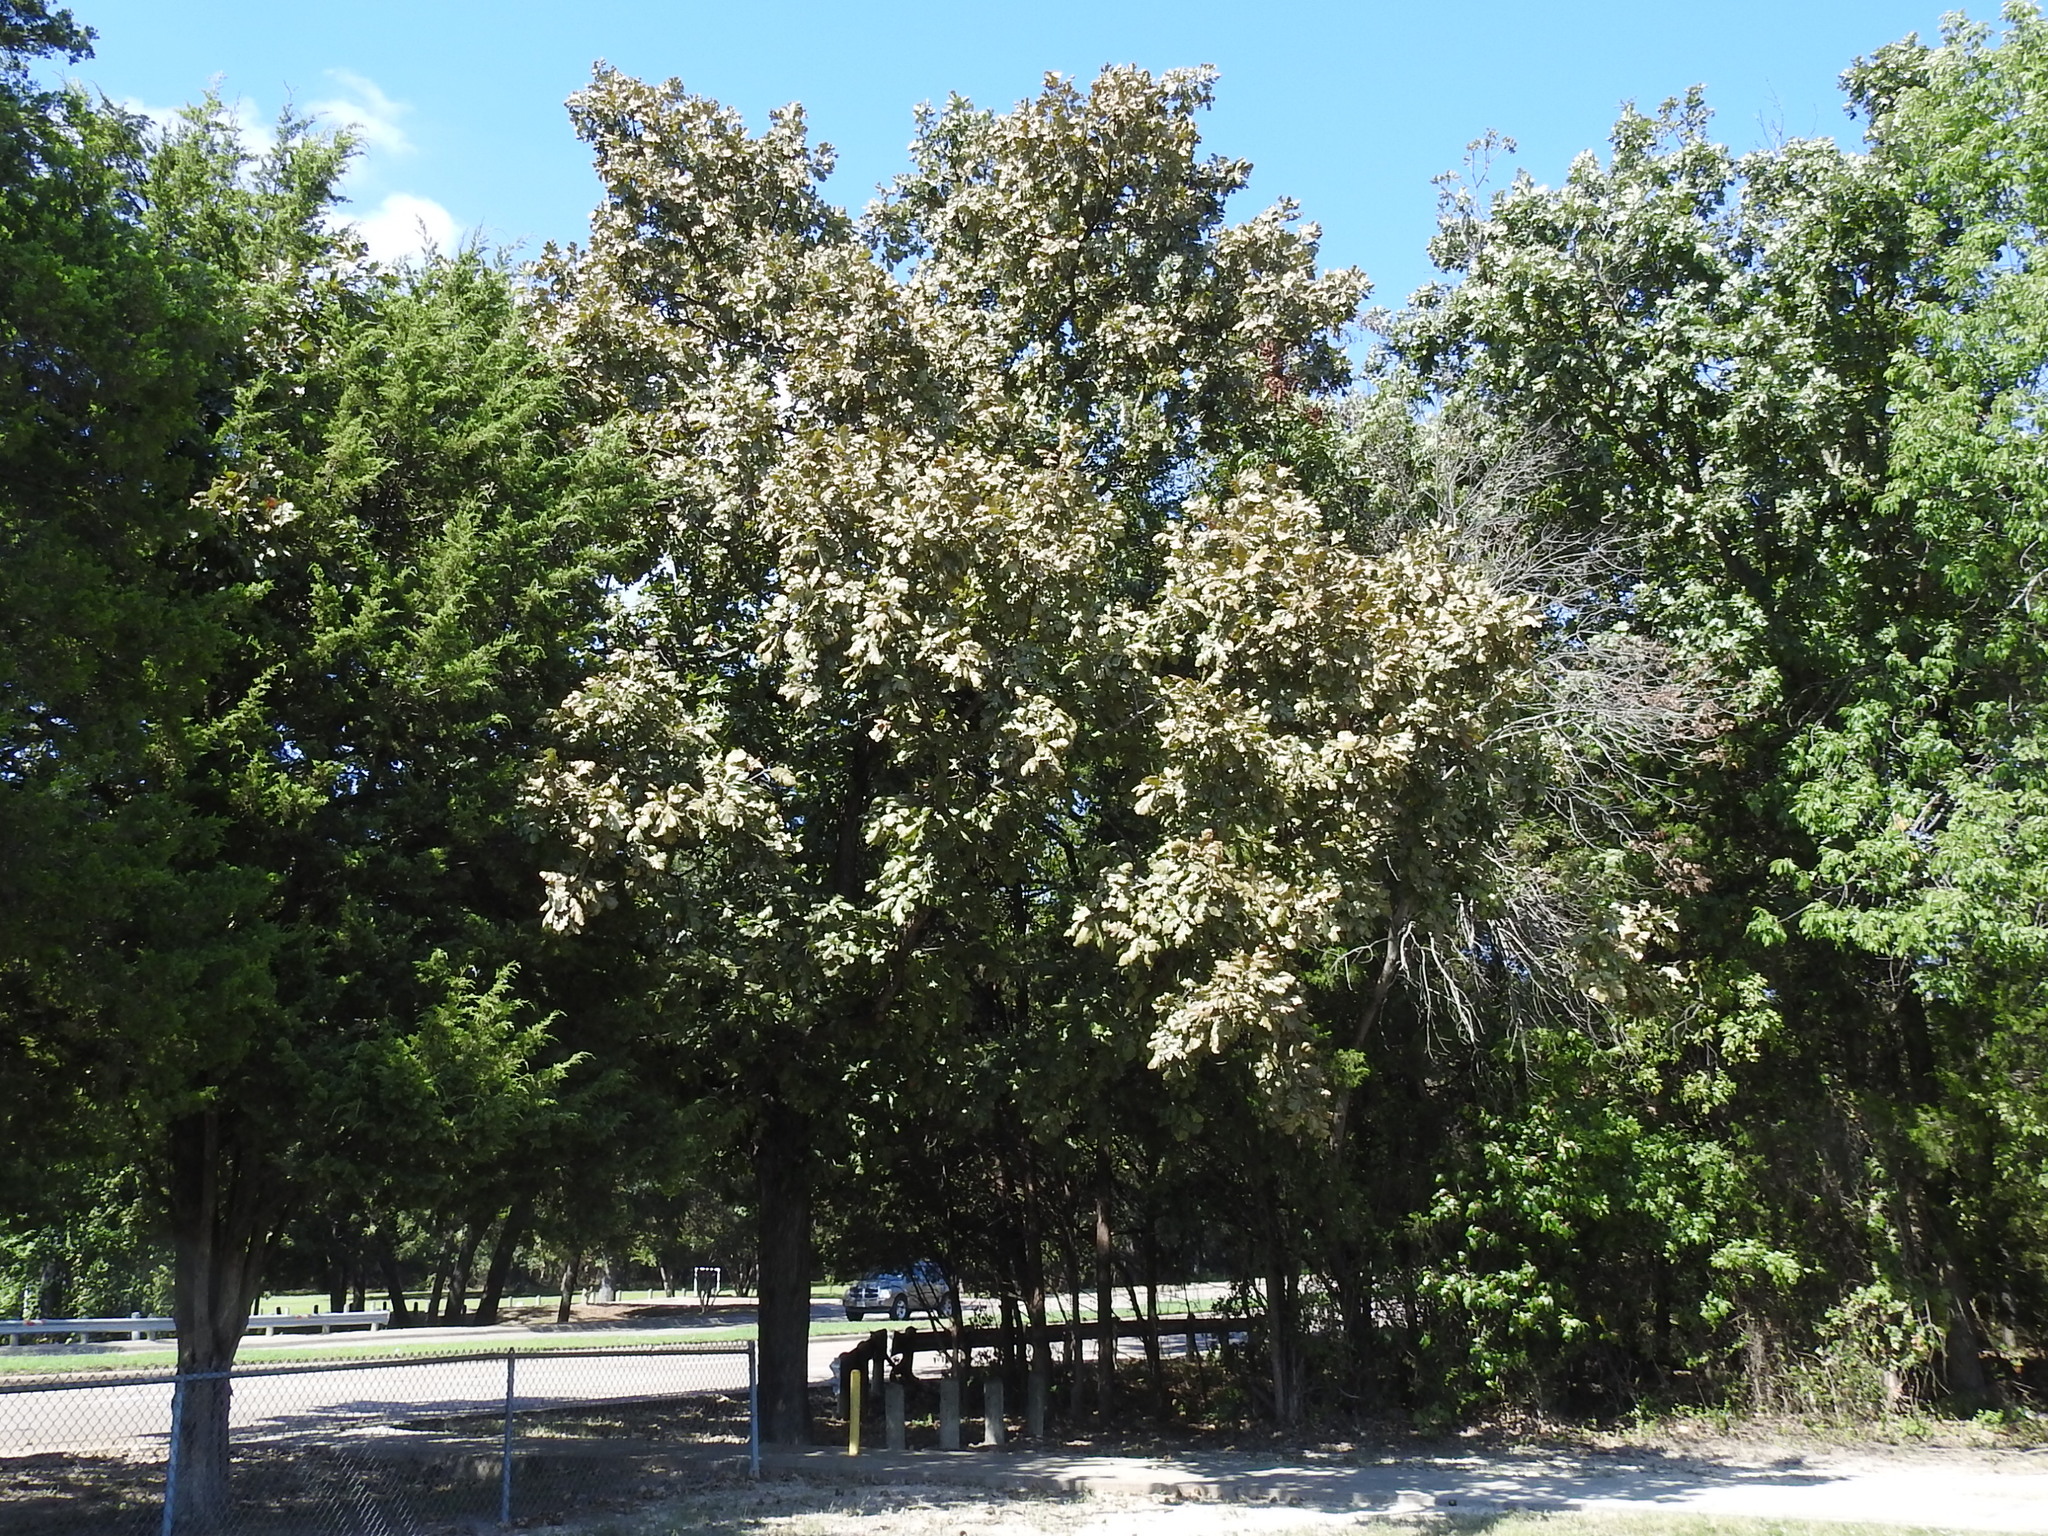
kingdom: Plantae
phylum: Tracheophyta
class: Magnoliopsida
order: Fagales
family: Fagaceae
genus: Quercus
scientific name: Quercus macrocarpa
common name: Bur oak
